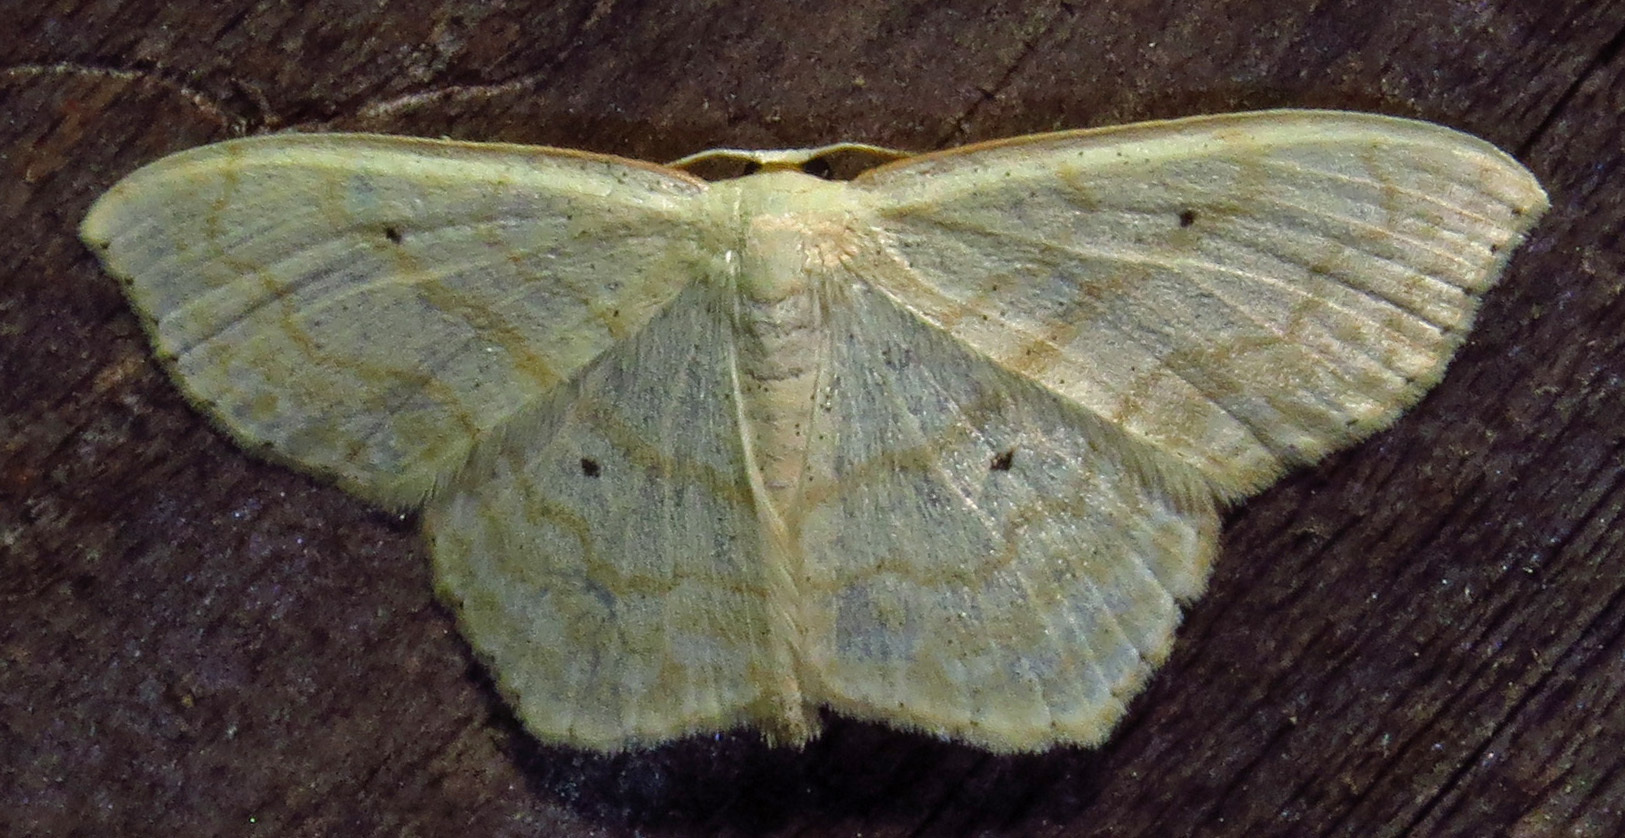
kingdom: Animalia
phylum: Arthropoda
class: Insecta
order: Lepidoptera
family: Geometridae
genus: Scopula
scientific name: Scopula limboundata
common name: Large lace border
